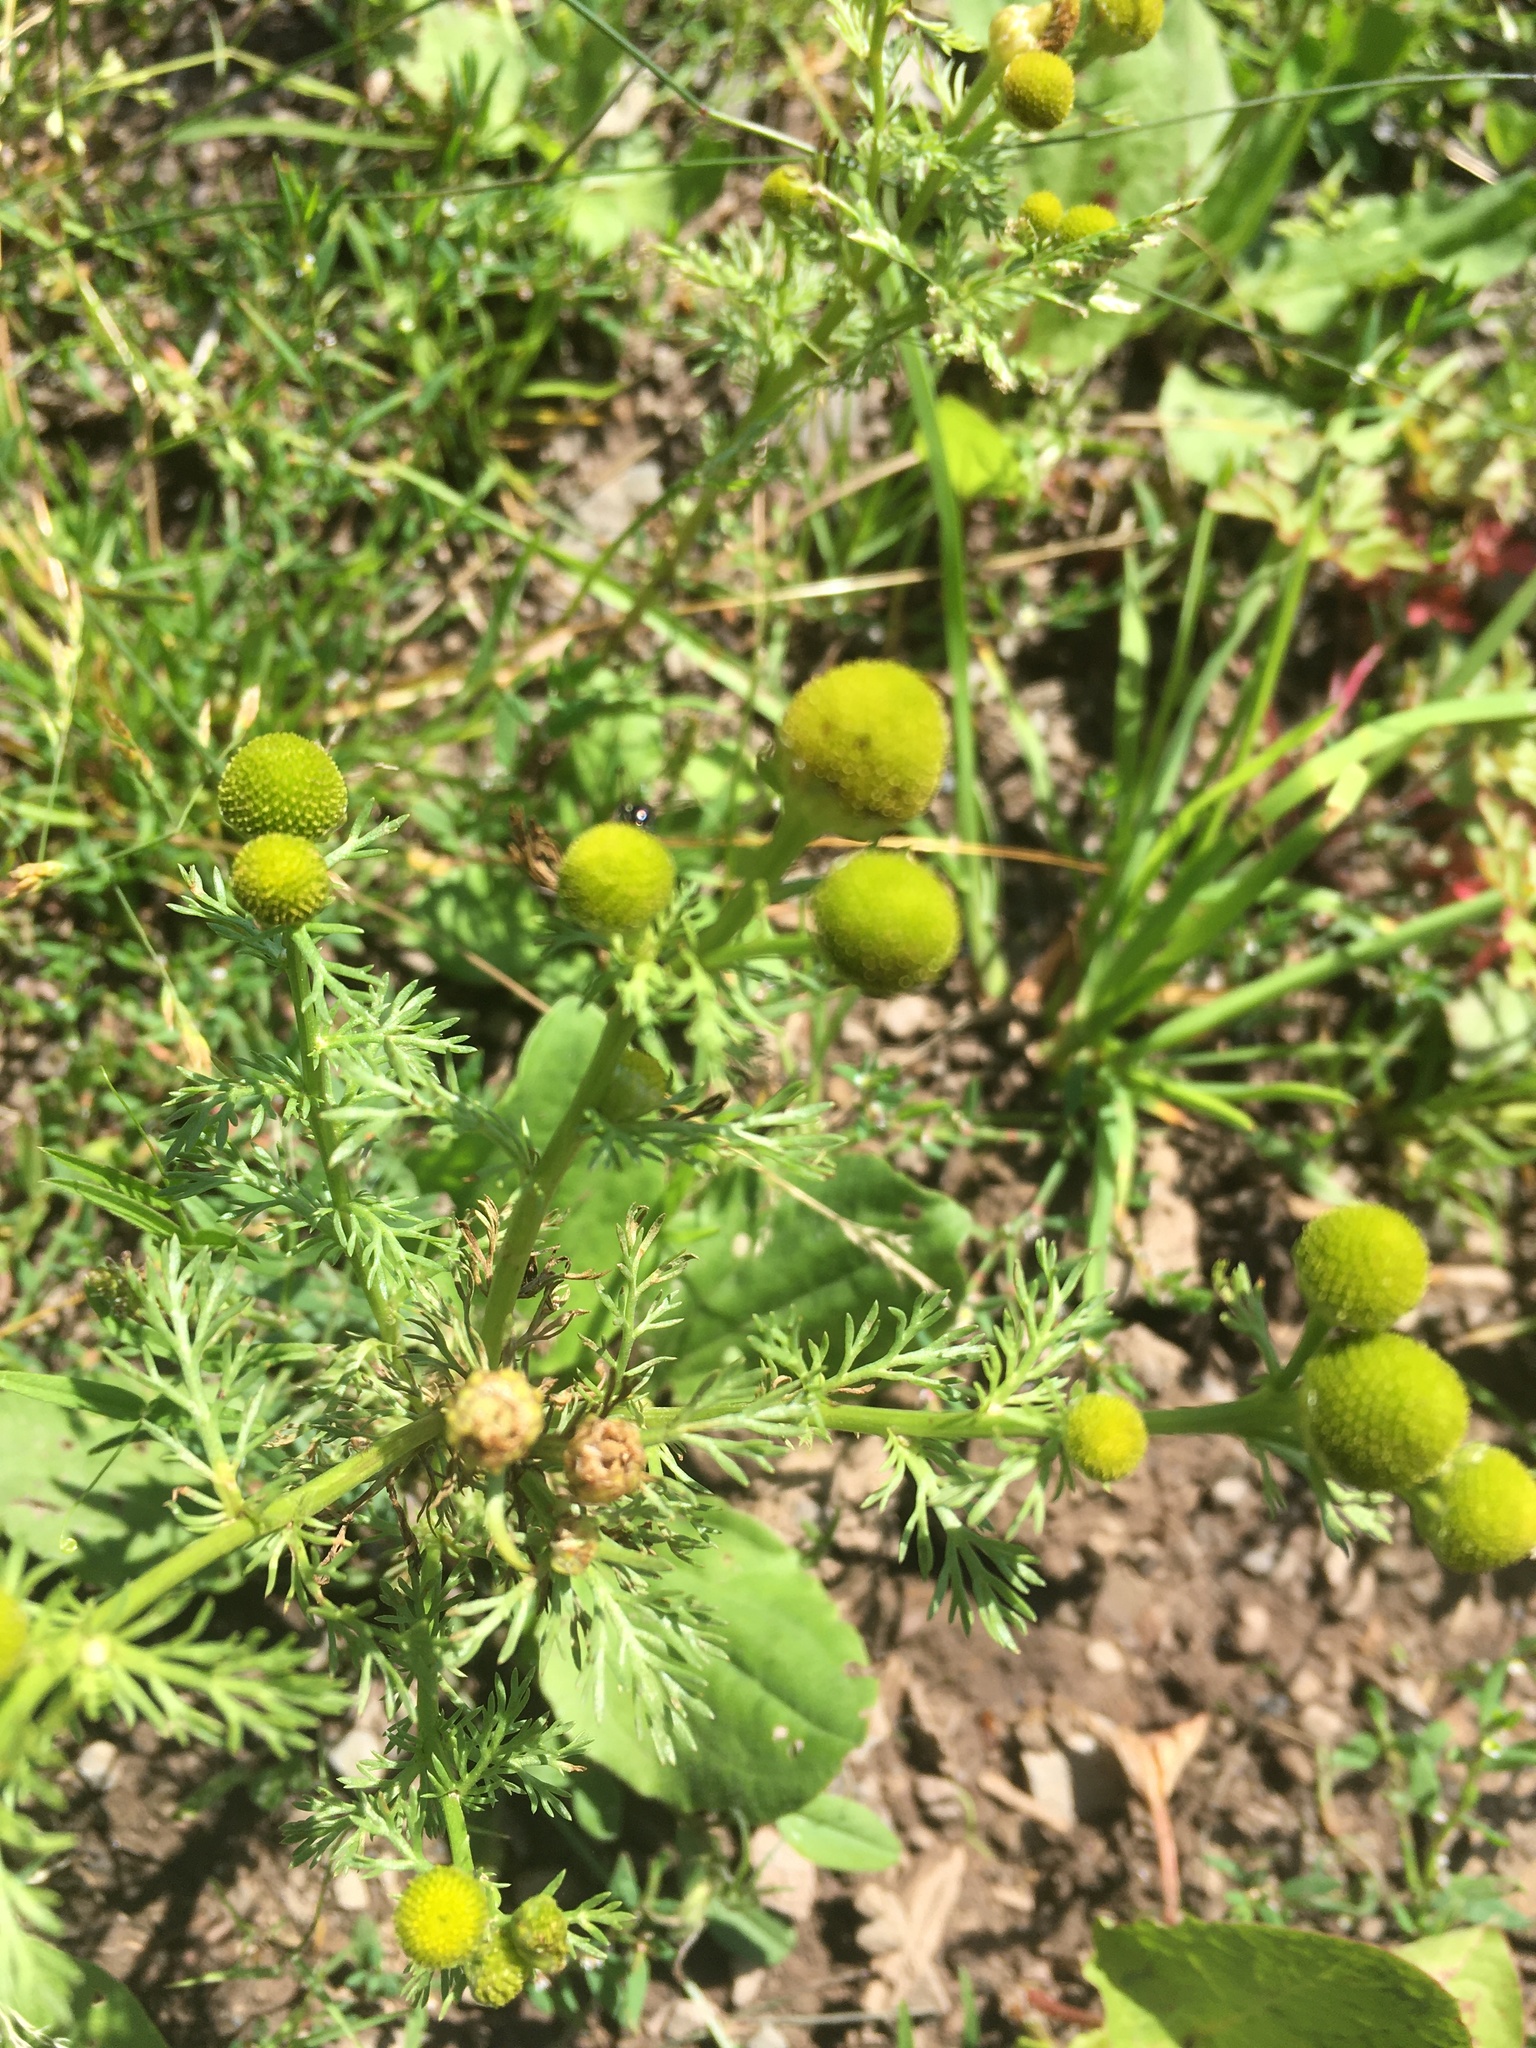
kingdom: Plantae
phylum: Tracheophyta
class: Magnoliopsida
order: Asterales
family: Asteraceae
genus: Matricaria
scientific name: Matricaria discoidea
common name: Disc mayweed
